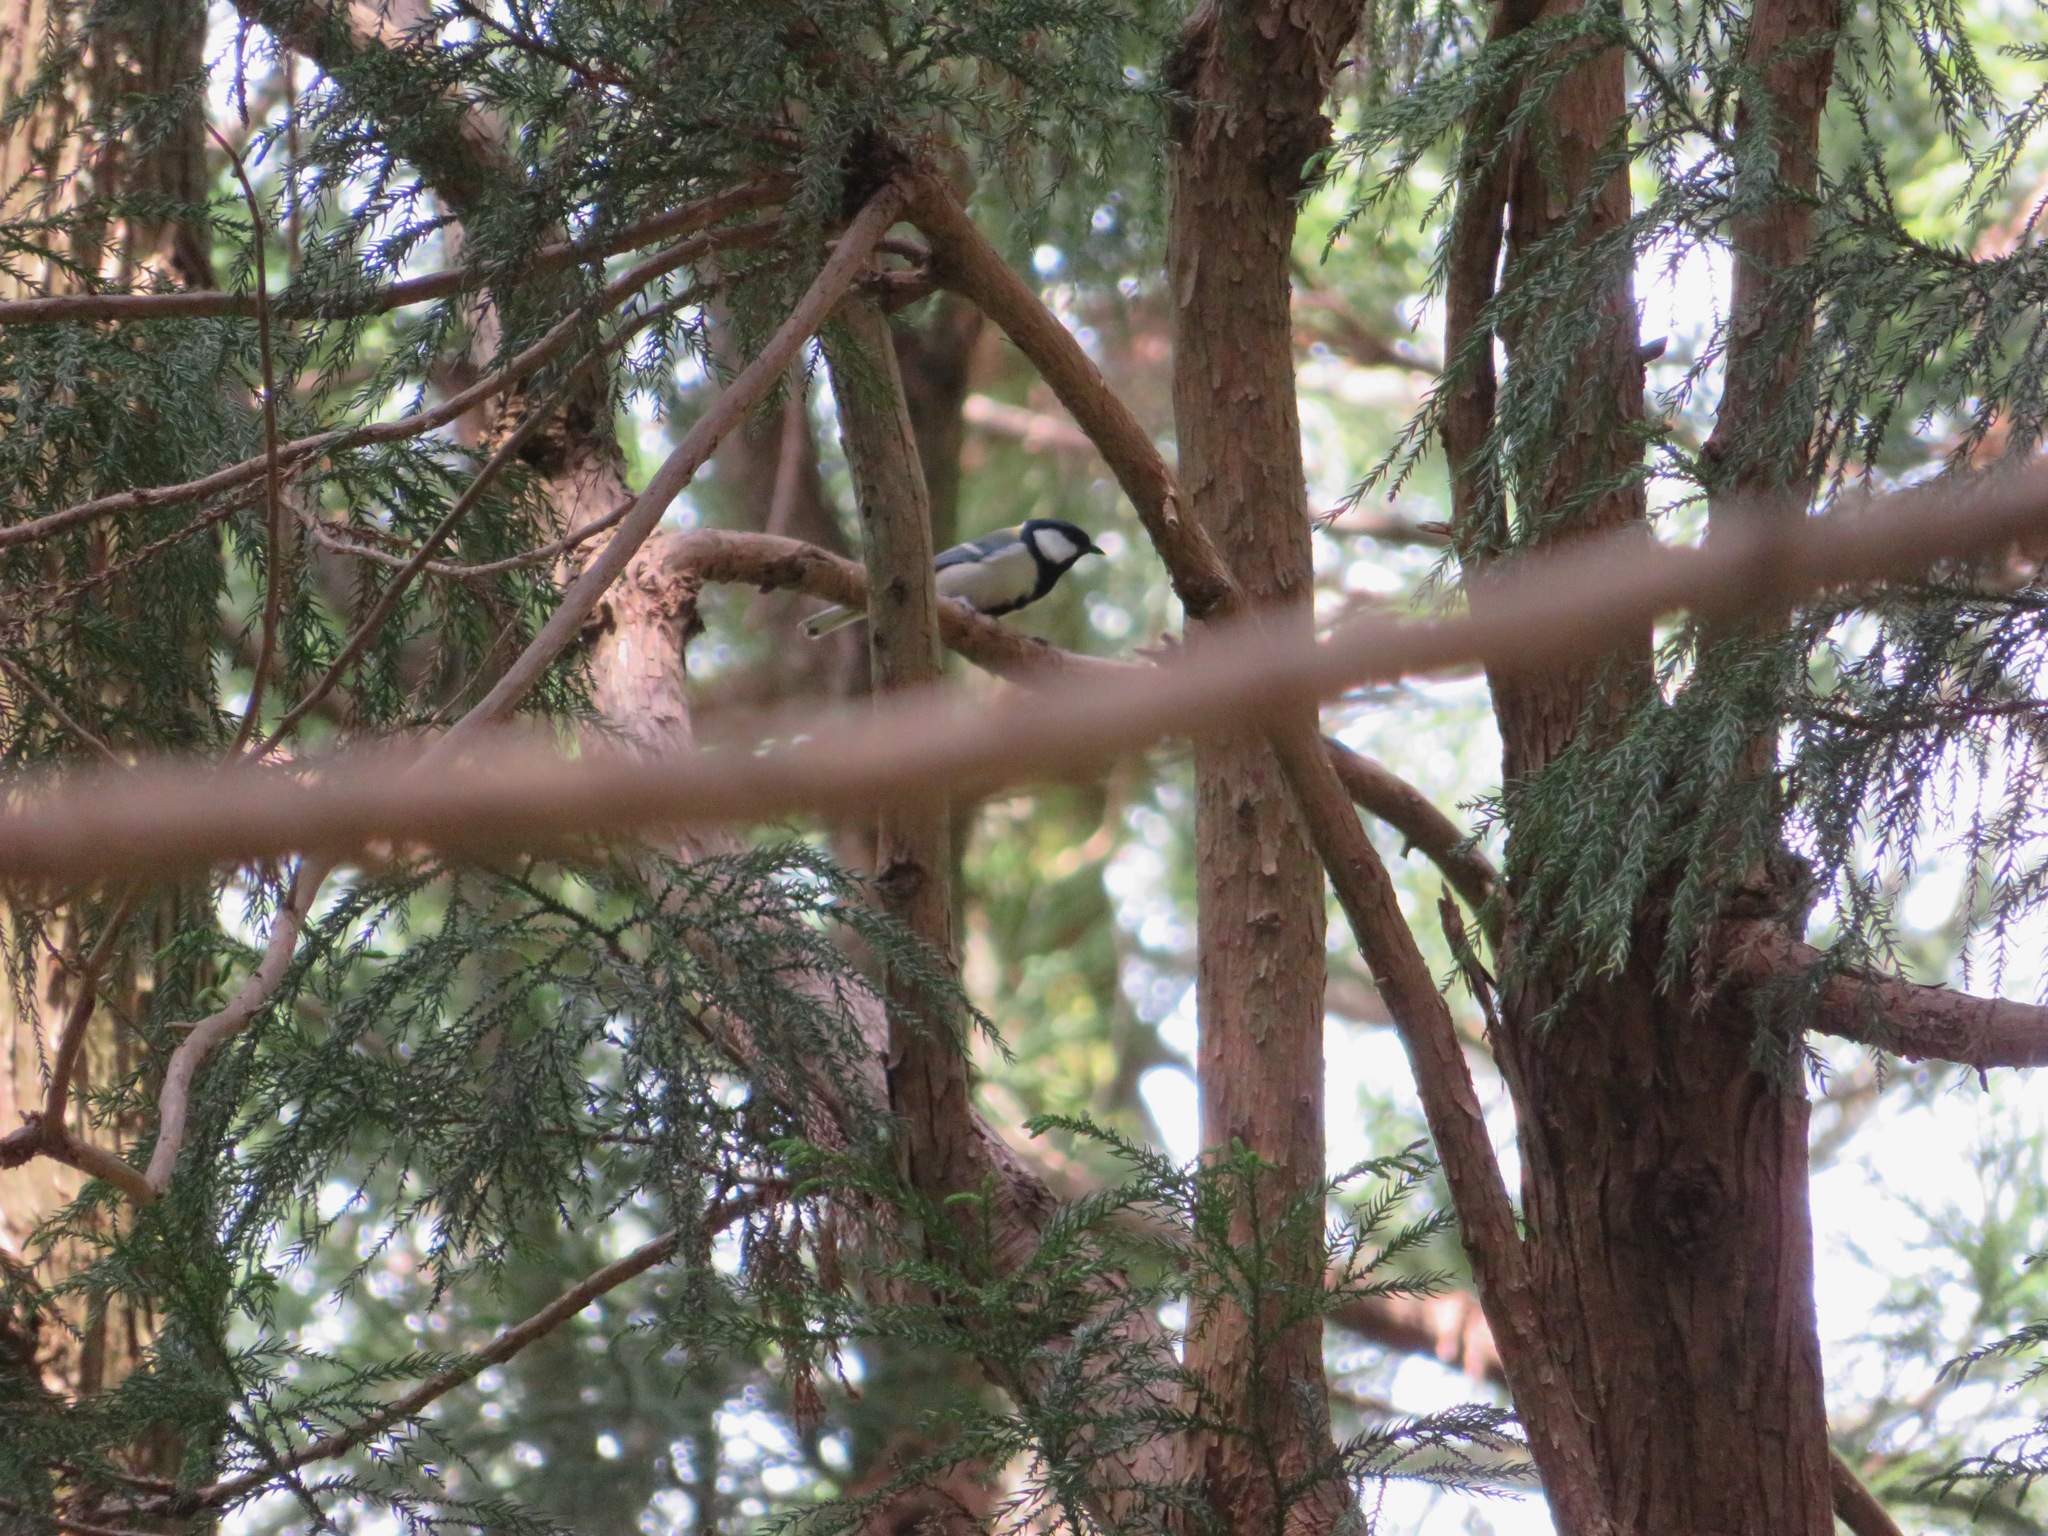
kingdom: Animalia
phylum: Chordata
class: Aves
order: Passeriformes
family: Paridae
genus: Parus
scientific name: Parus minor
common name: Japanese tit
